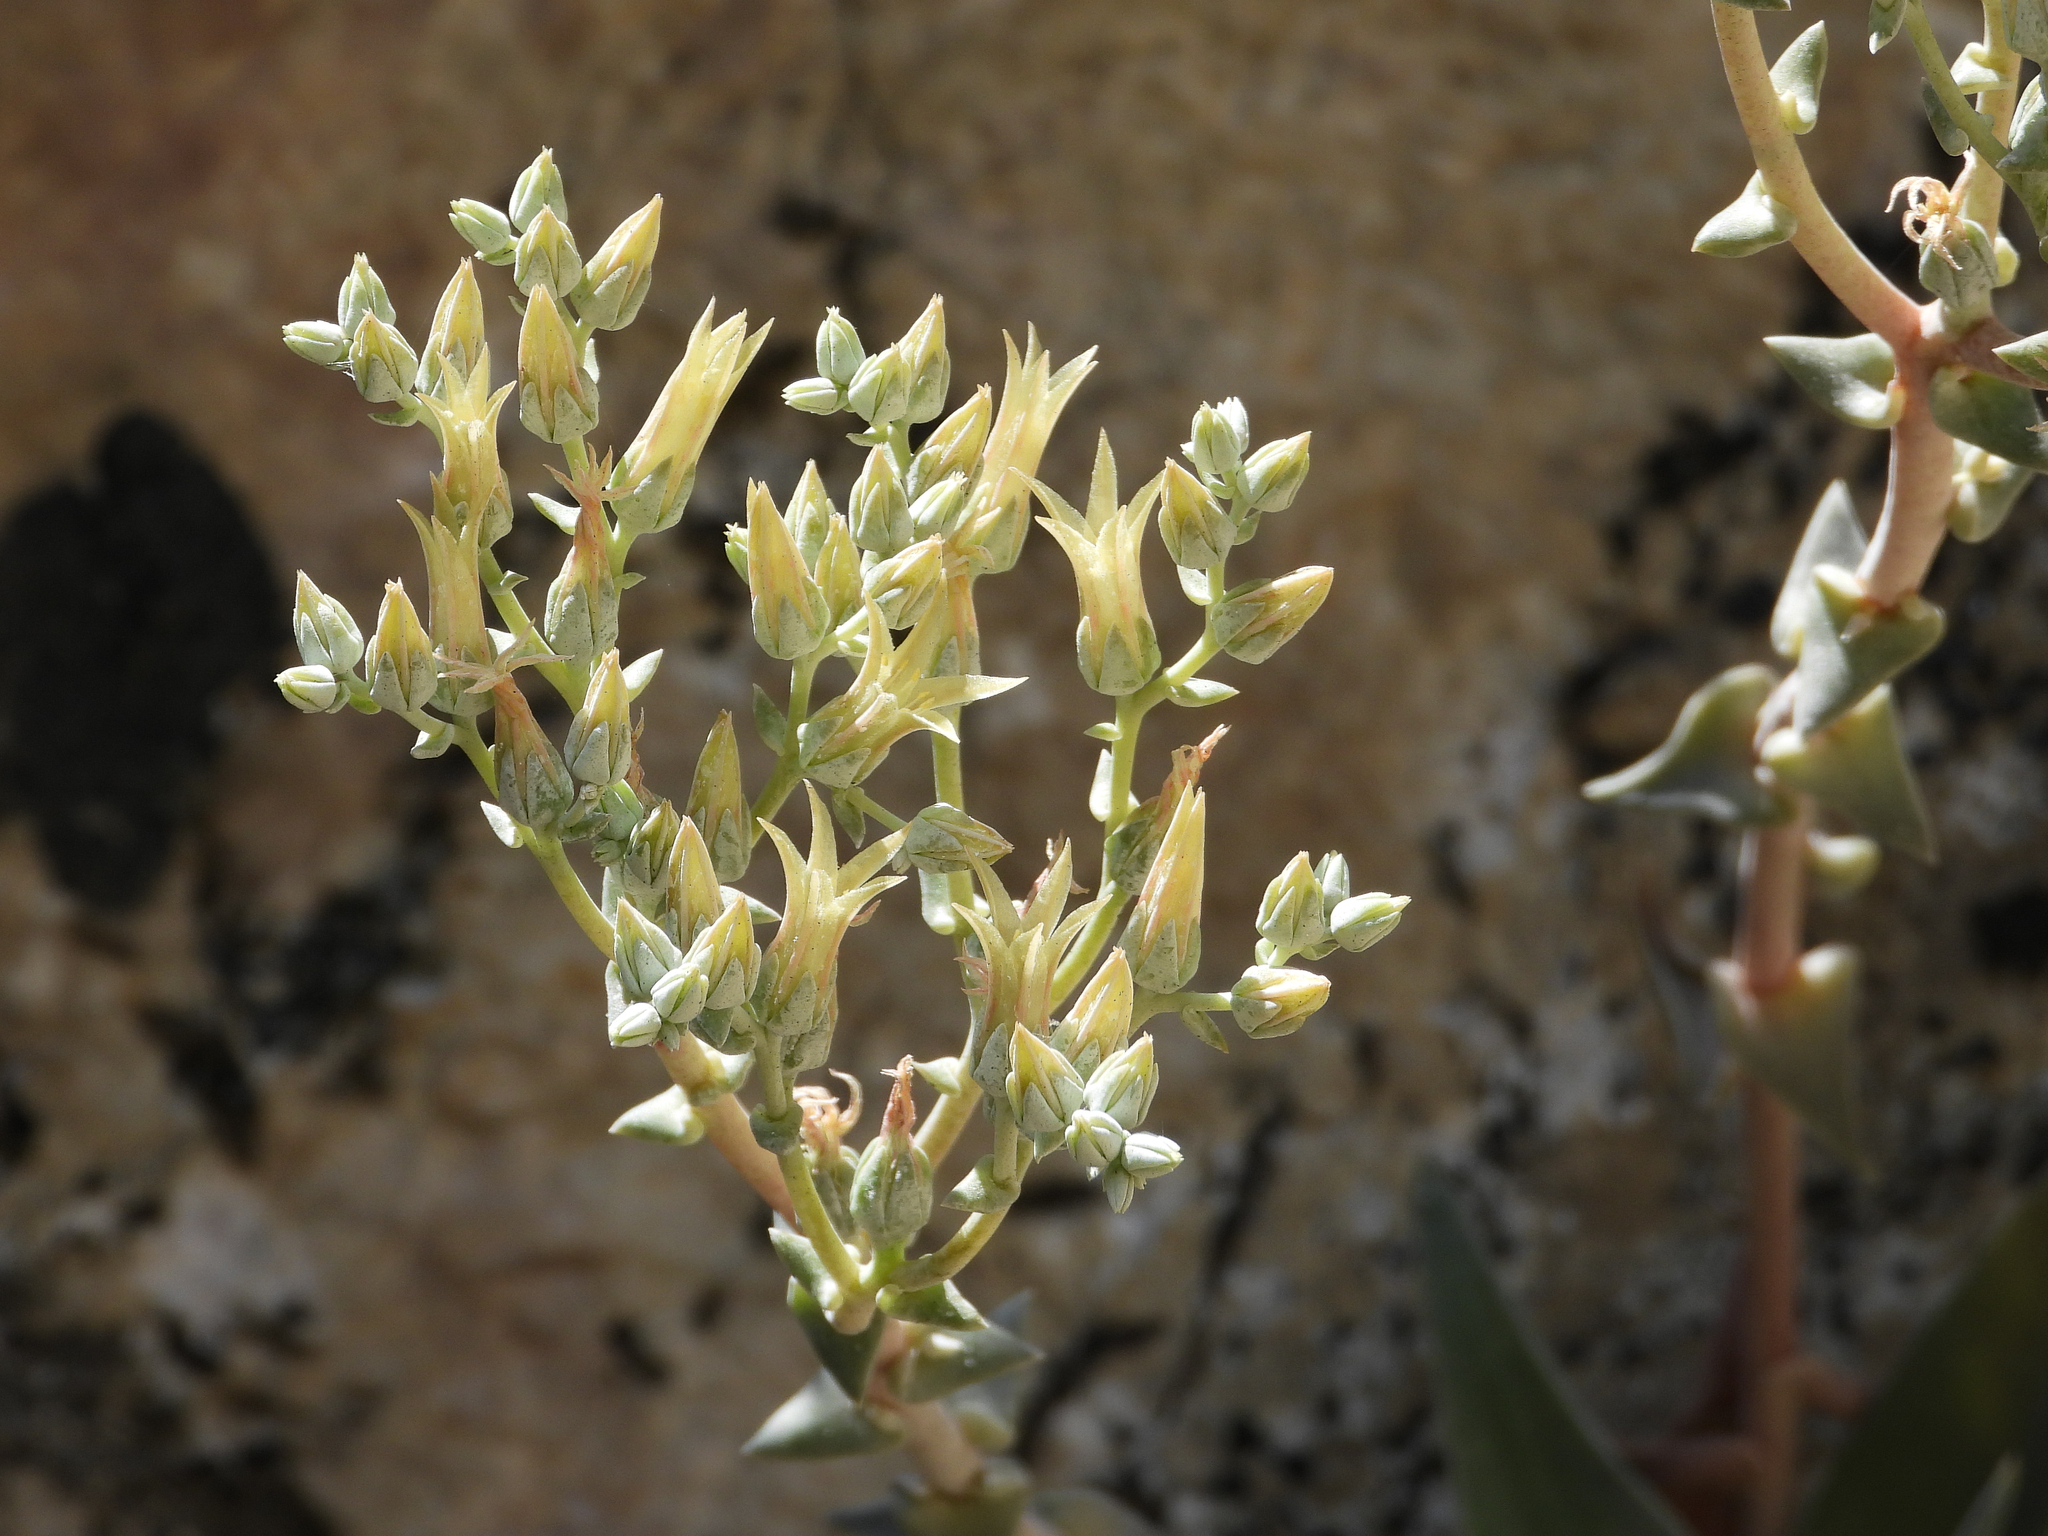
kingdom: Plantae
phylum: Tracheophyta
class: Magnoliopsida
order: Saxifragales
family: Crassulaceae
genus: Dudleya
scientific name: Dudleya abramsii
